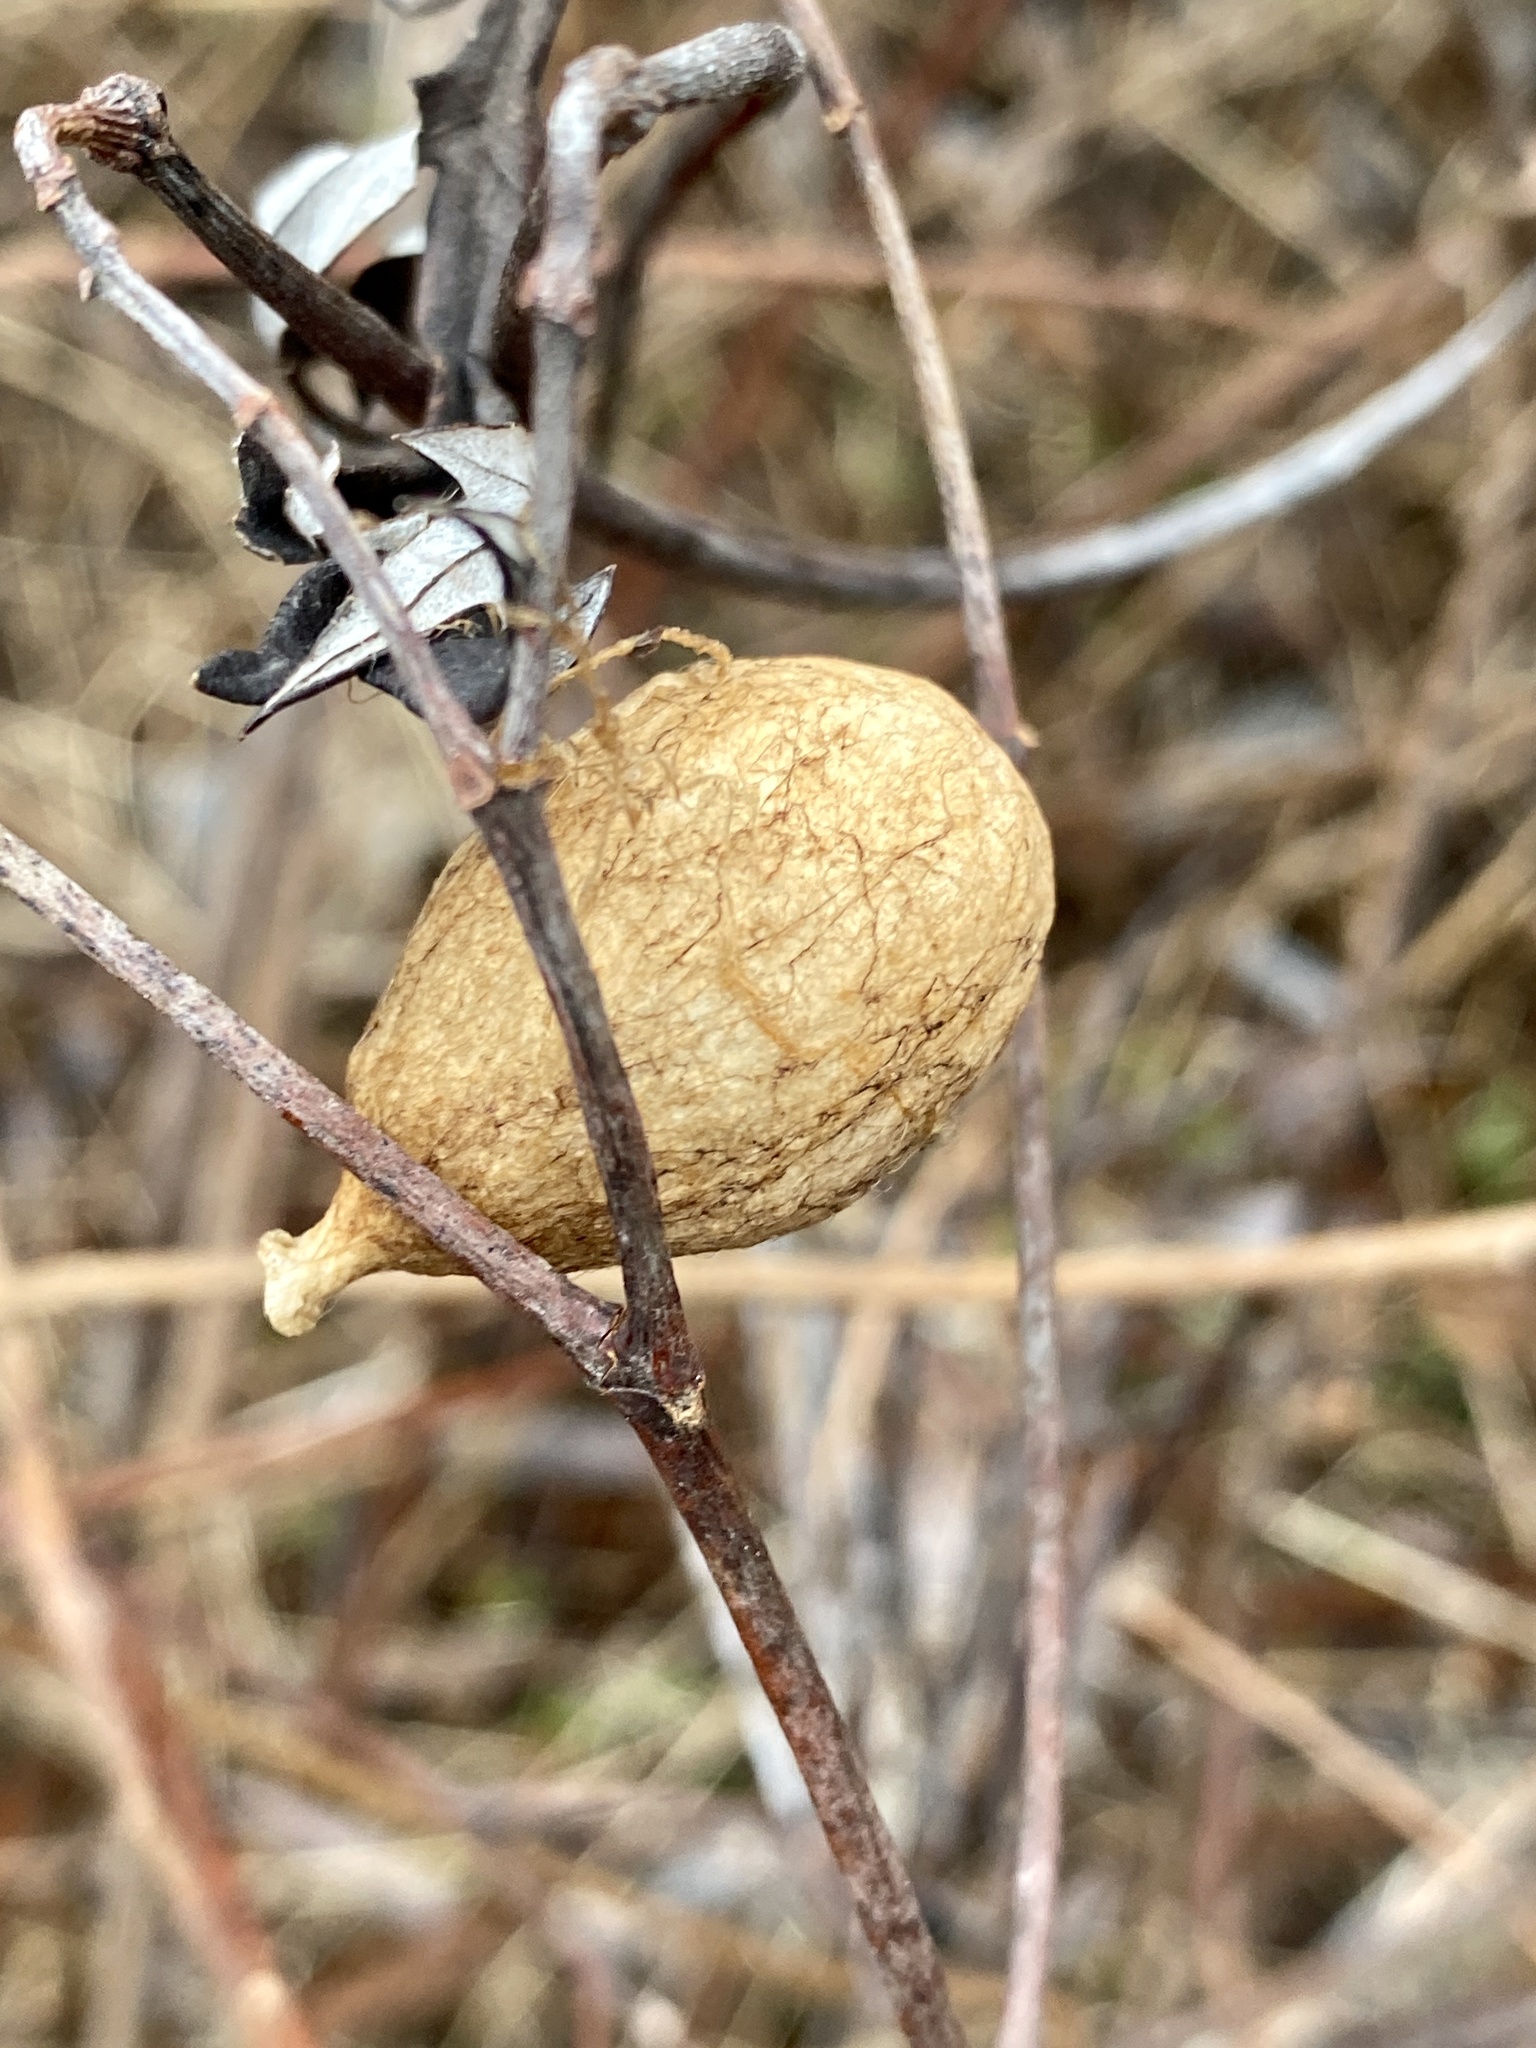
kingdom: Animalia
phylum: Arthropoda
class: Arachnida
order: Araneae
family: Araneidae
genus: Argiope
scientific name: Argiope aurantia
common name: Orb weavers
